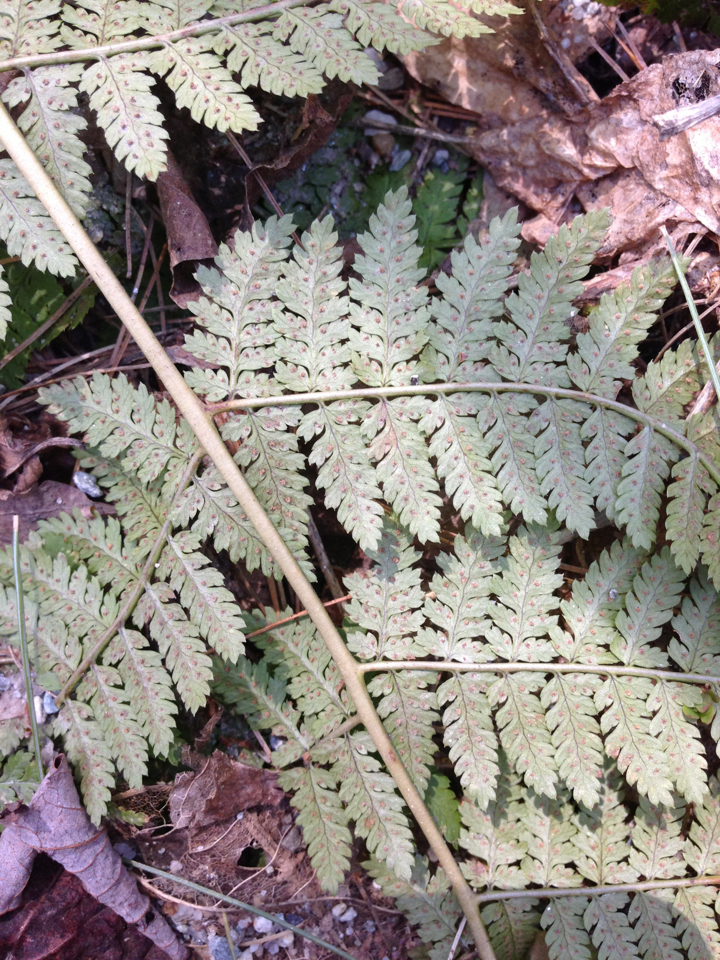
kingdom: Plantae
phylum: Tracheophyta
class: Polypodiopsida
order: Polypodiales
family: Dryopteridaceae
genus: Dryopteris
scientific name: Dryopteris intermedia
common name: Evergreen wood fern
